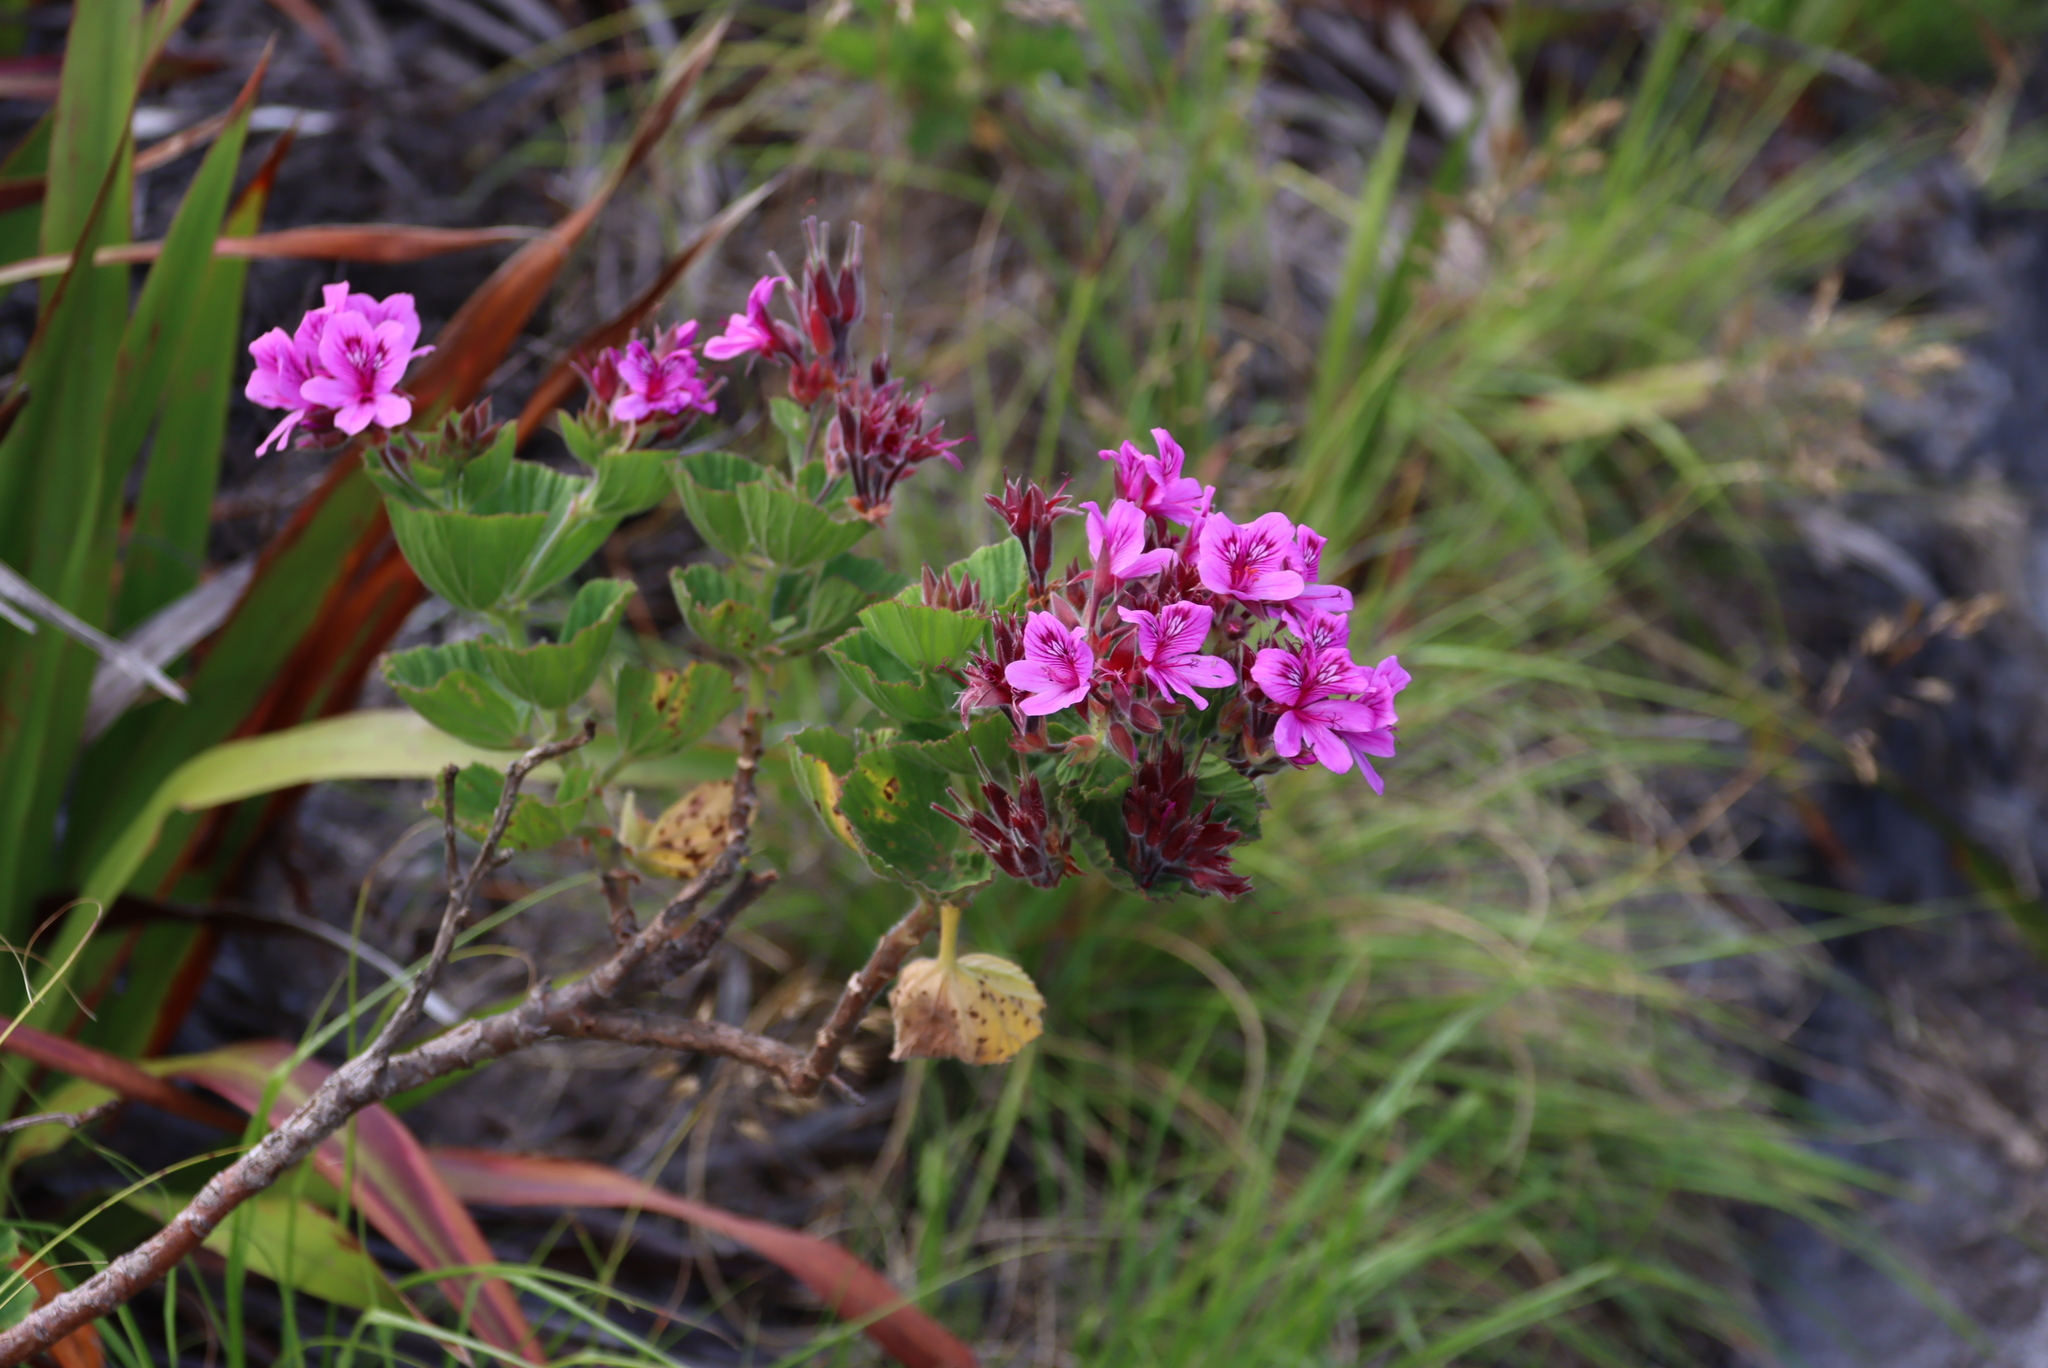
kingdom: Plantae
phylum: Tracheophyta
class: Magnoliopsida
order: Geraniales
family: Geraniaceae
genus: Pelargonium
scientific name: Pelargonium cucullatum
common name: Tree pelargonium
